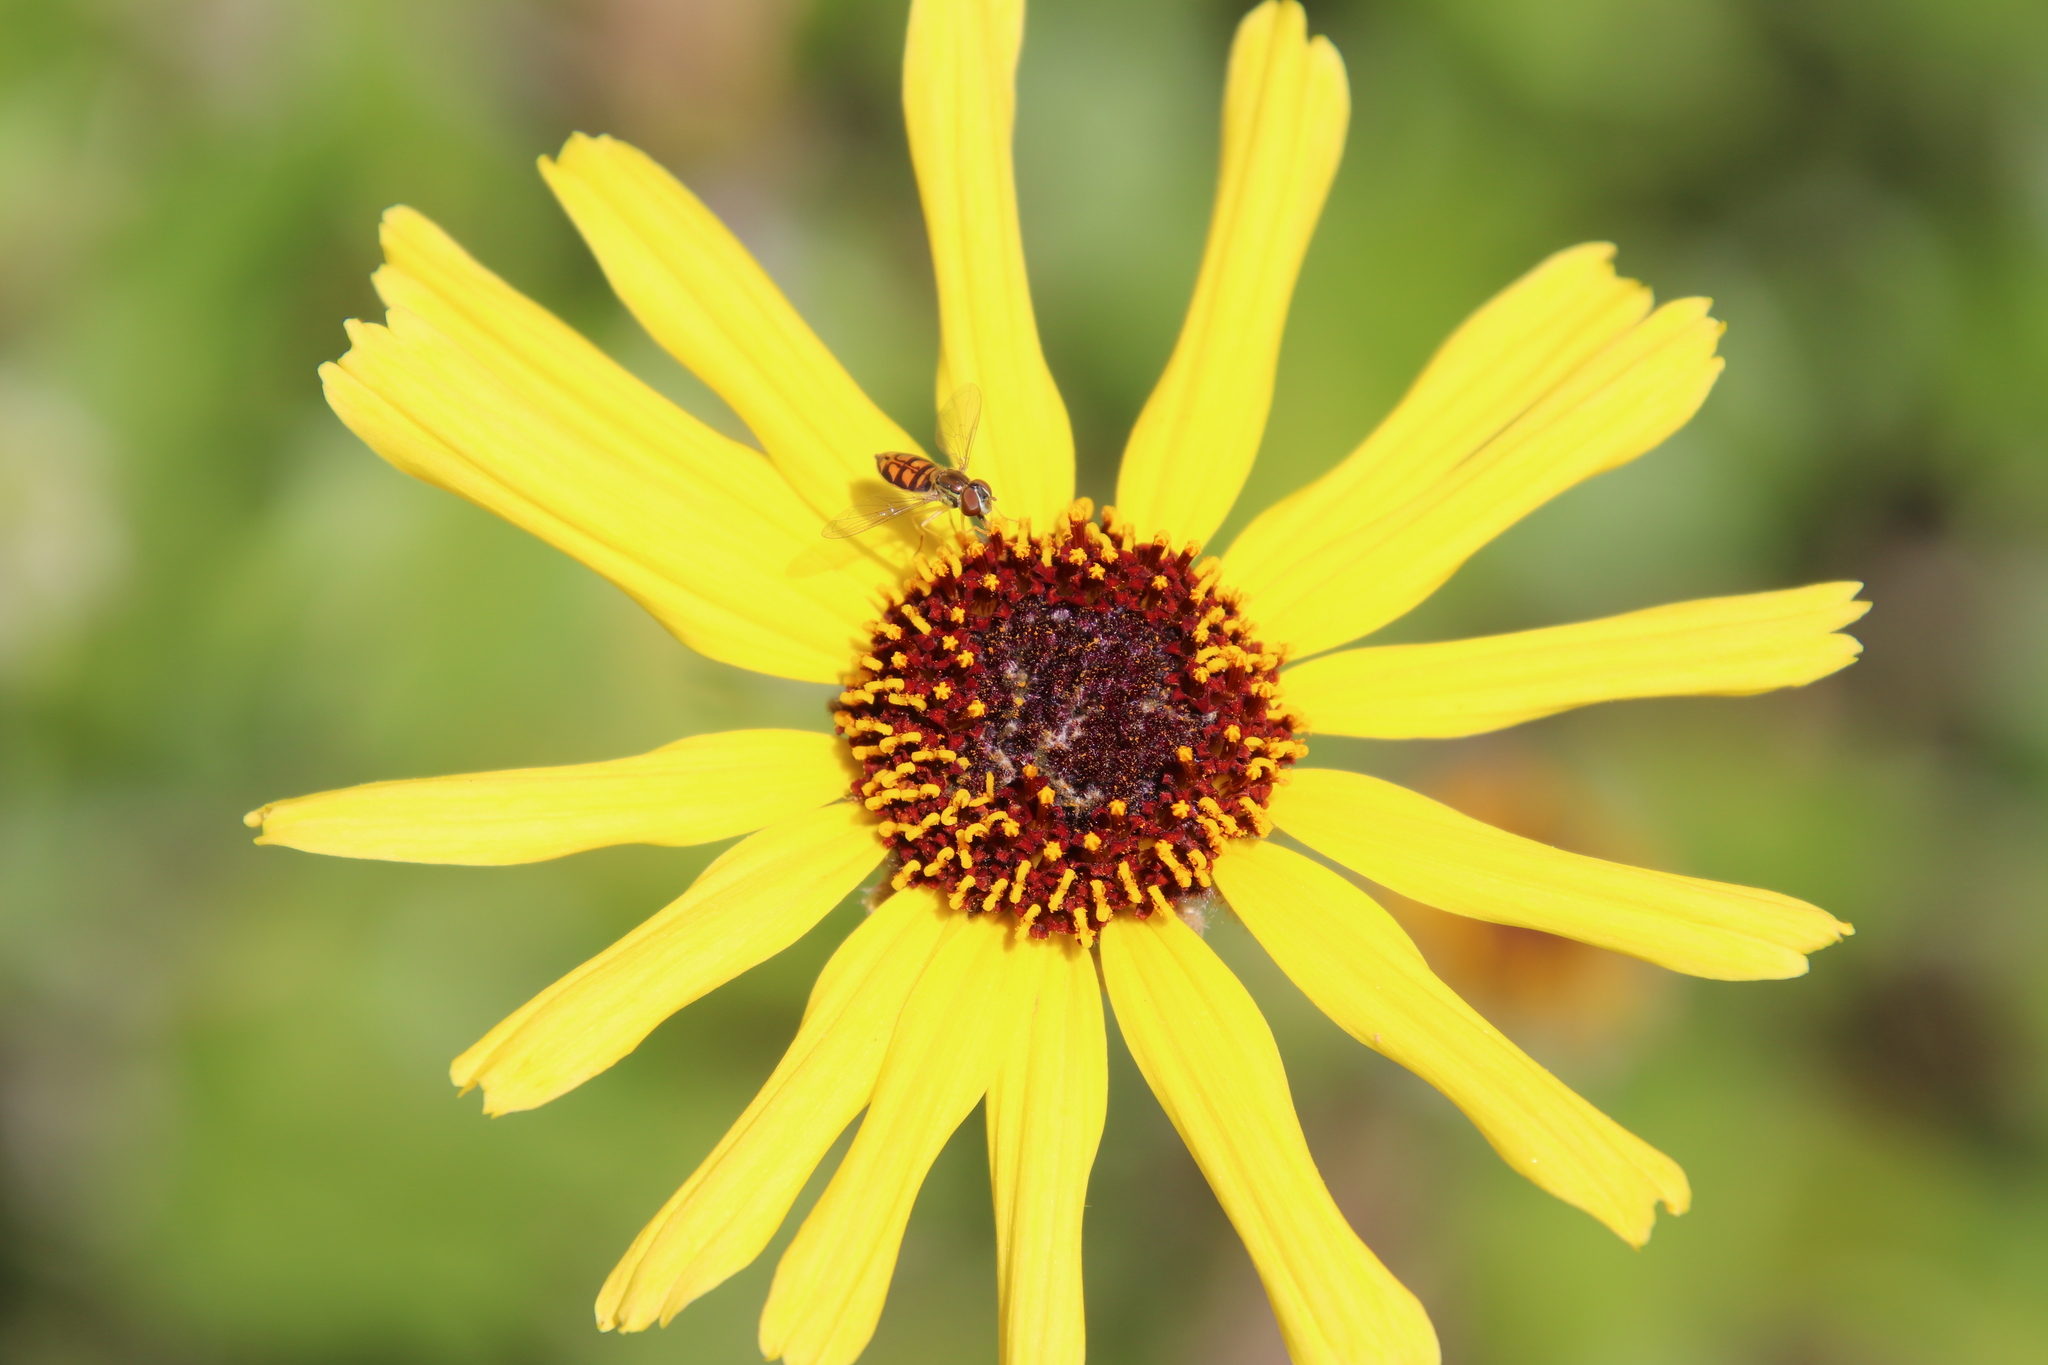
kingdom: Plantae
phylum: Tracheophyta
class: Magnoliopsida
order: Asterales
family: Asteraceae
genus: Encelia
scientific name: Encelia californica
